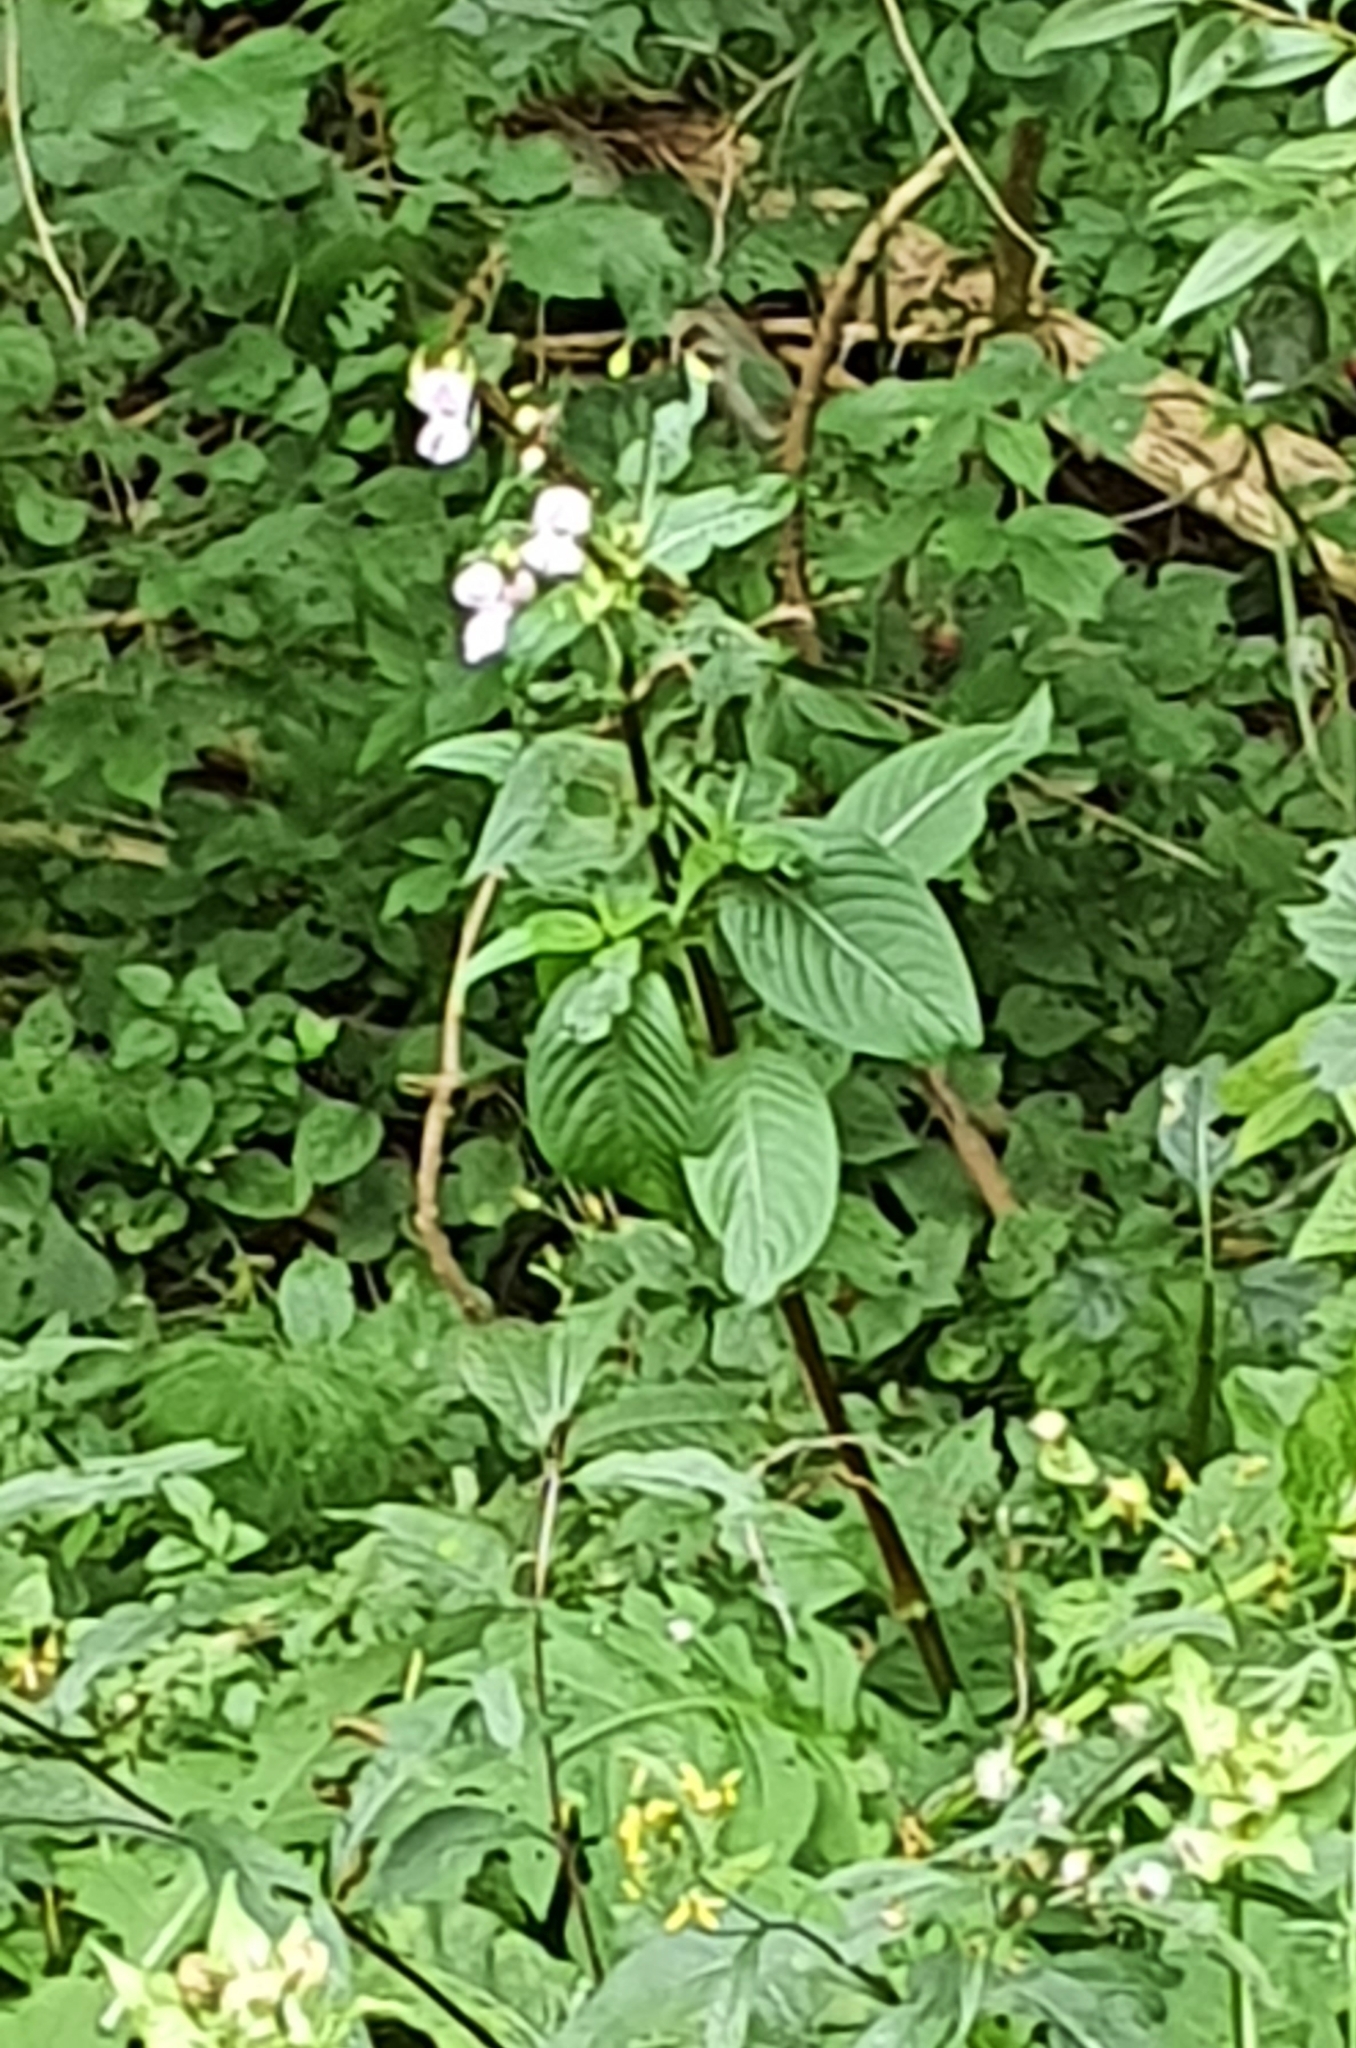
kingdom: Plantae
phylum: Tracheophyta
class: Magnoliopsida
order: Ericales
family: Balsaminaceae
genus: Impatiens
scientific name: Impatiens glandulifera
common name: Himalayan balsam
